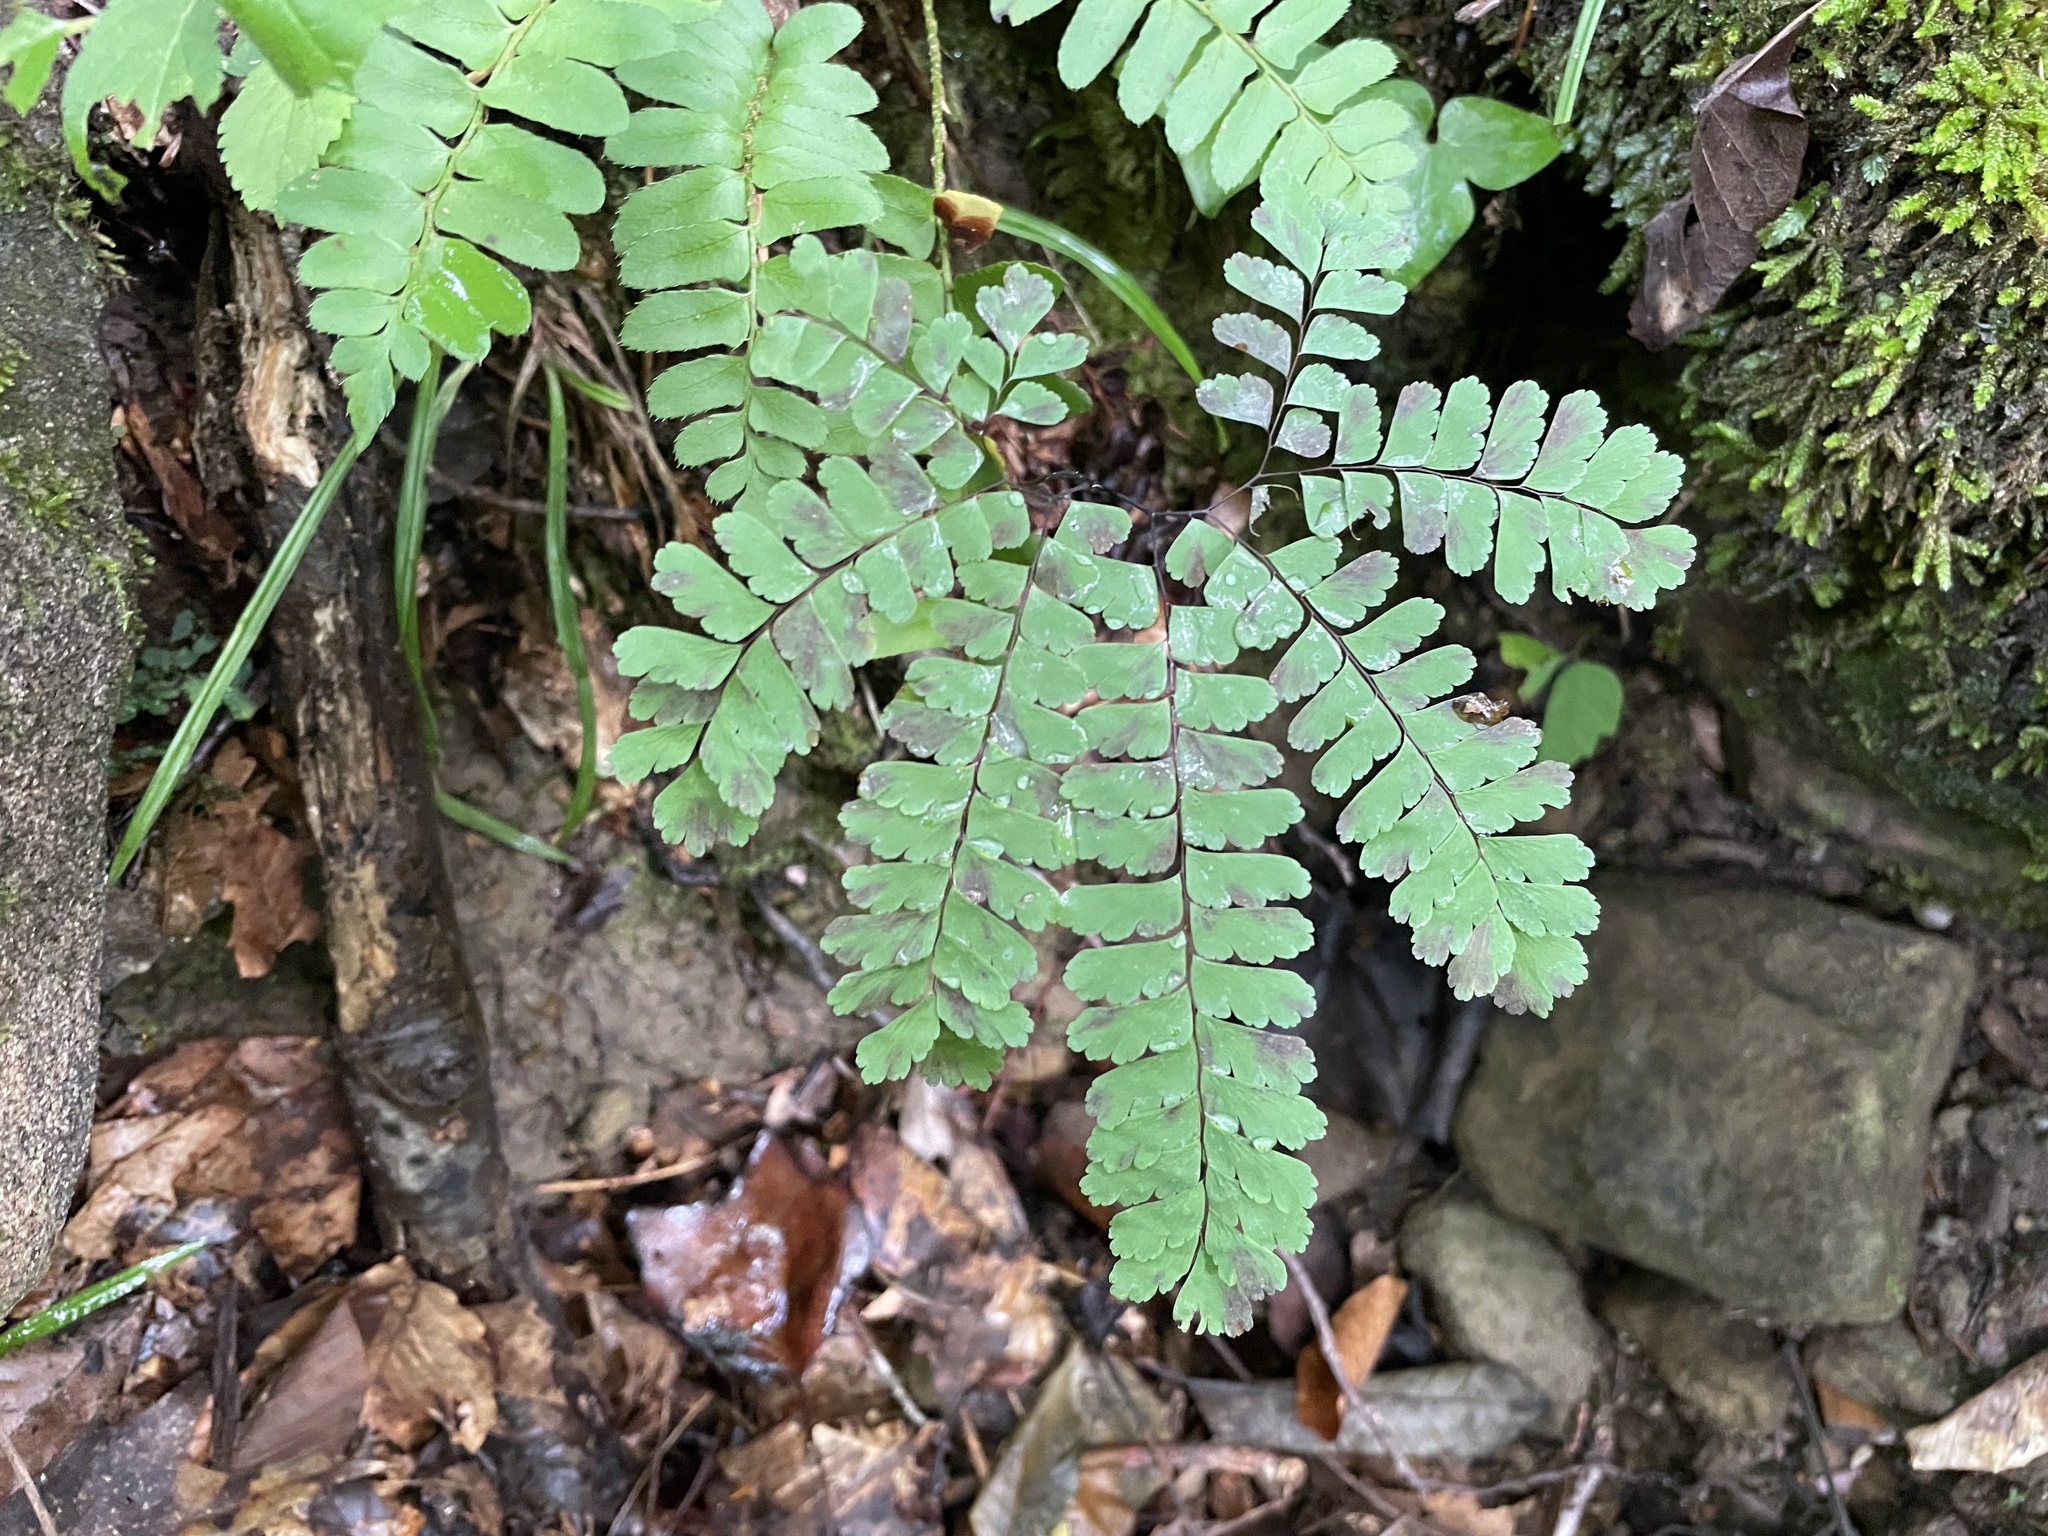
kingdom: Plantae
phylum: Tracheophyta
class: Polypodiopsida
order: Polypodiales
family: Pteridaceae
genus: Adiantum
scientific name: Adiantum pedatum
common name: Five-finger fern
